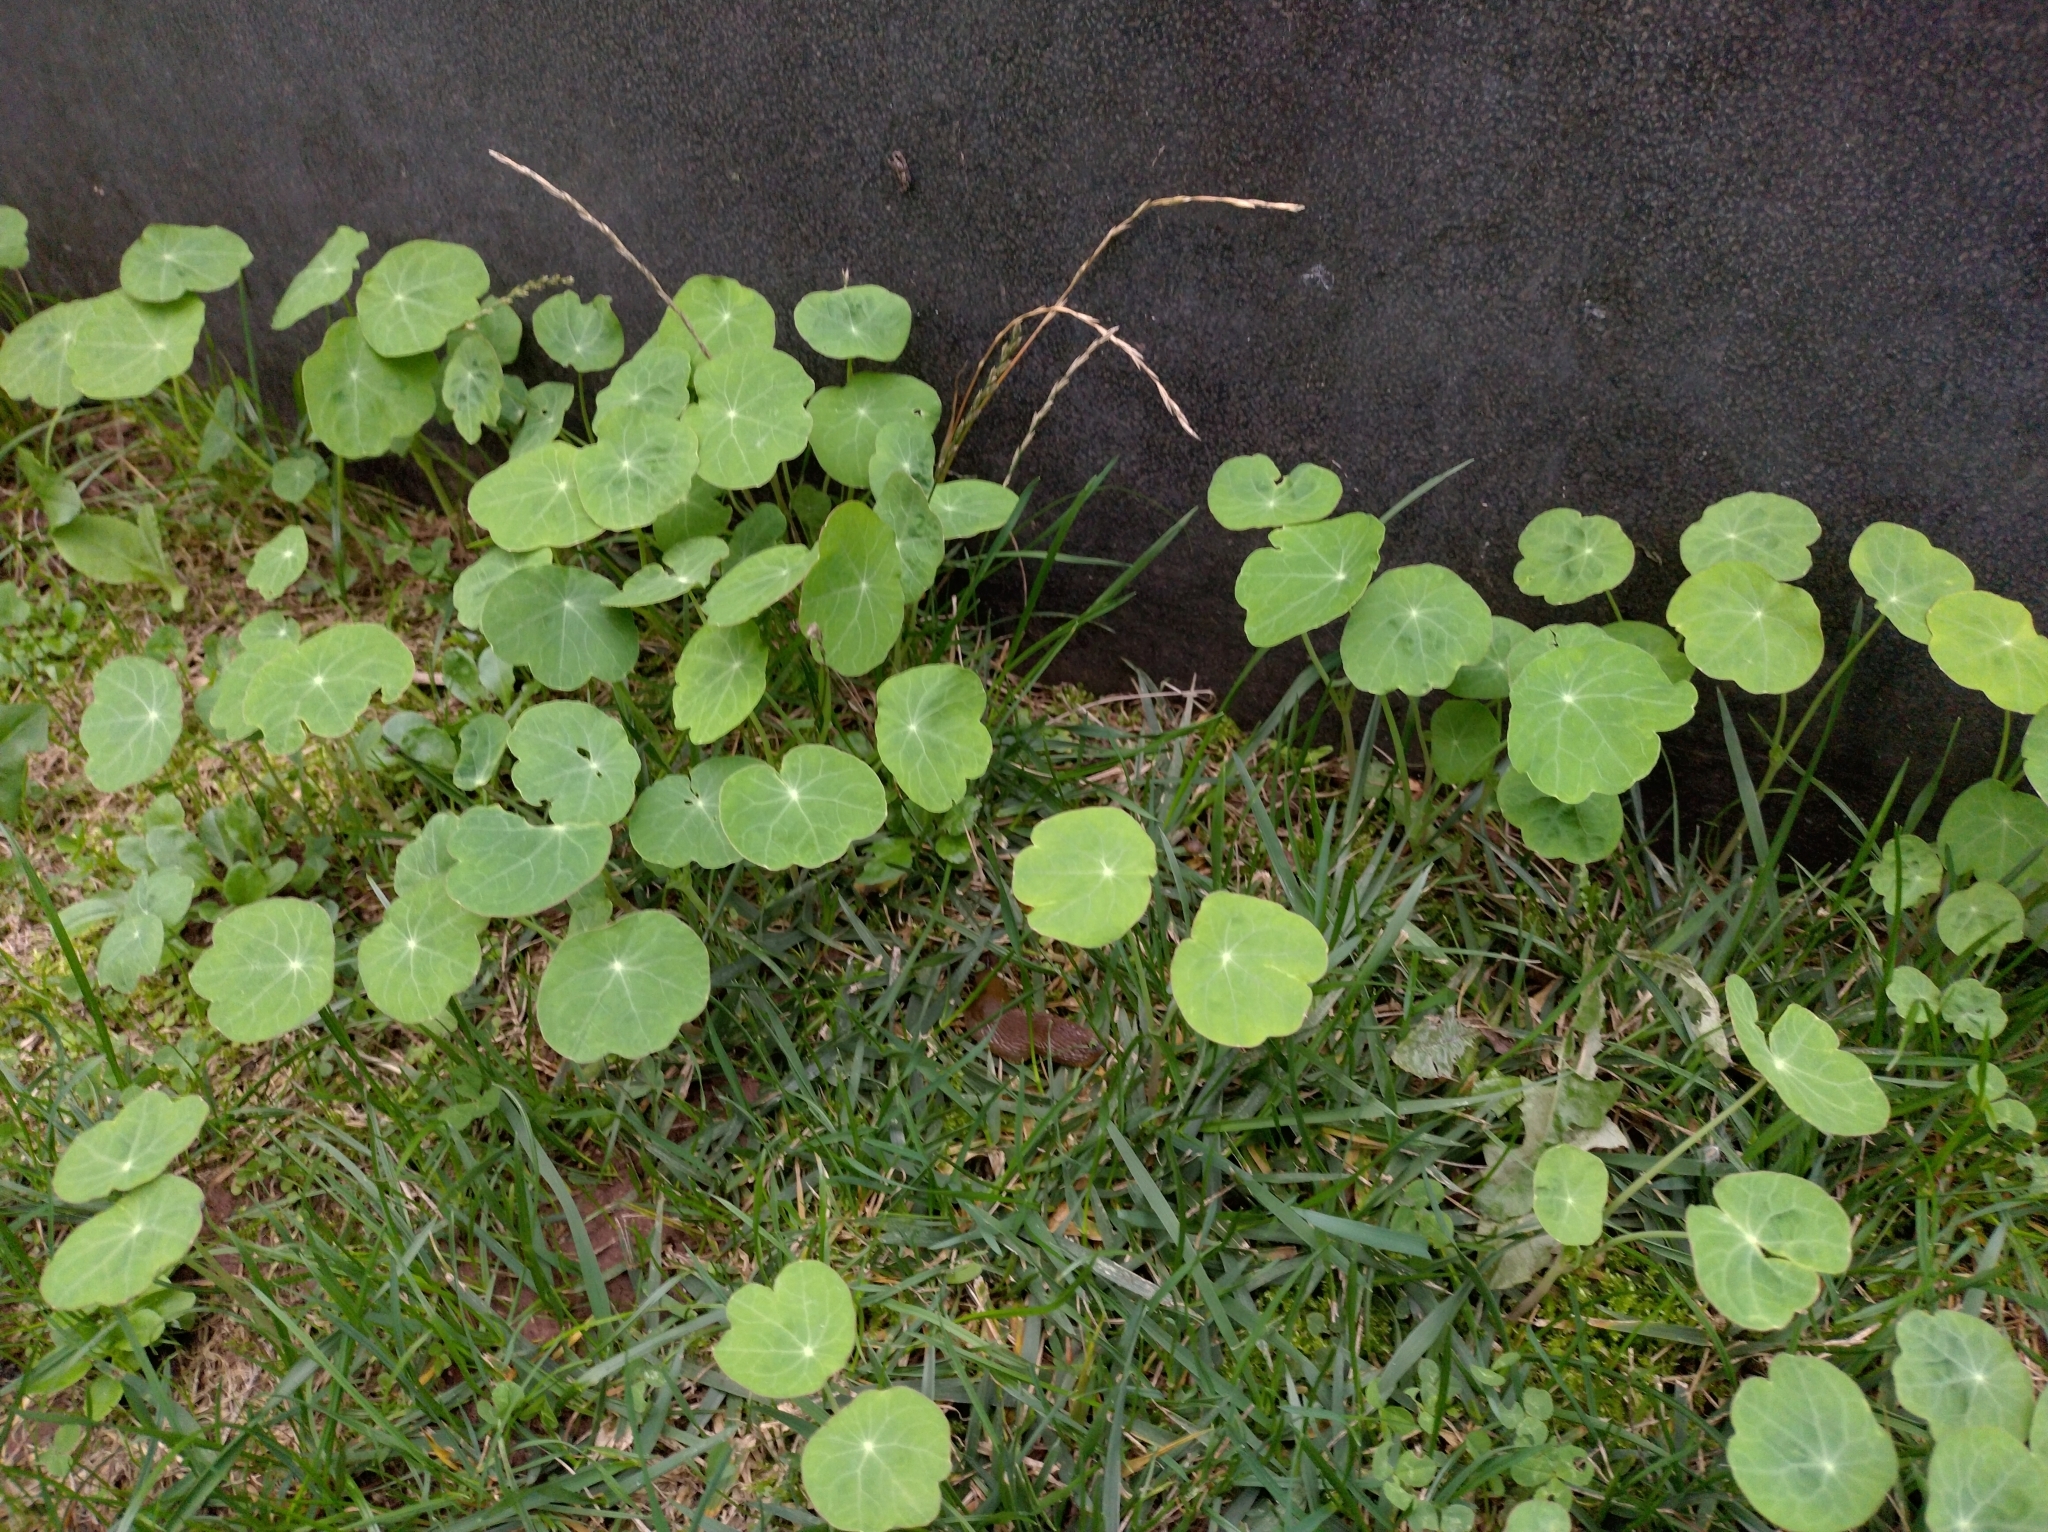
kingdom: Plantae
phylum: Tracheophyta
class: Magnoliopsida
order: Brassicales
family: Tropaeolaceae
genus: Tropaeolum
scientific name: Tropaeolum majus
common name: Nasturtium
